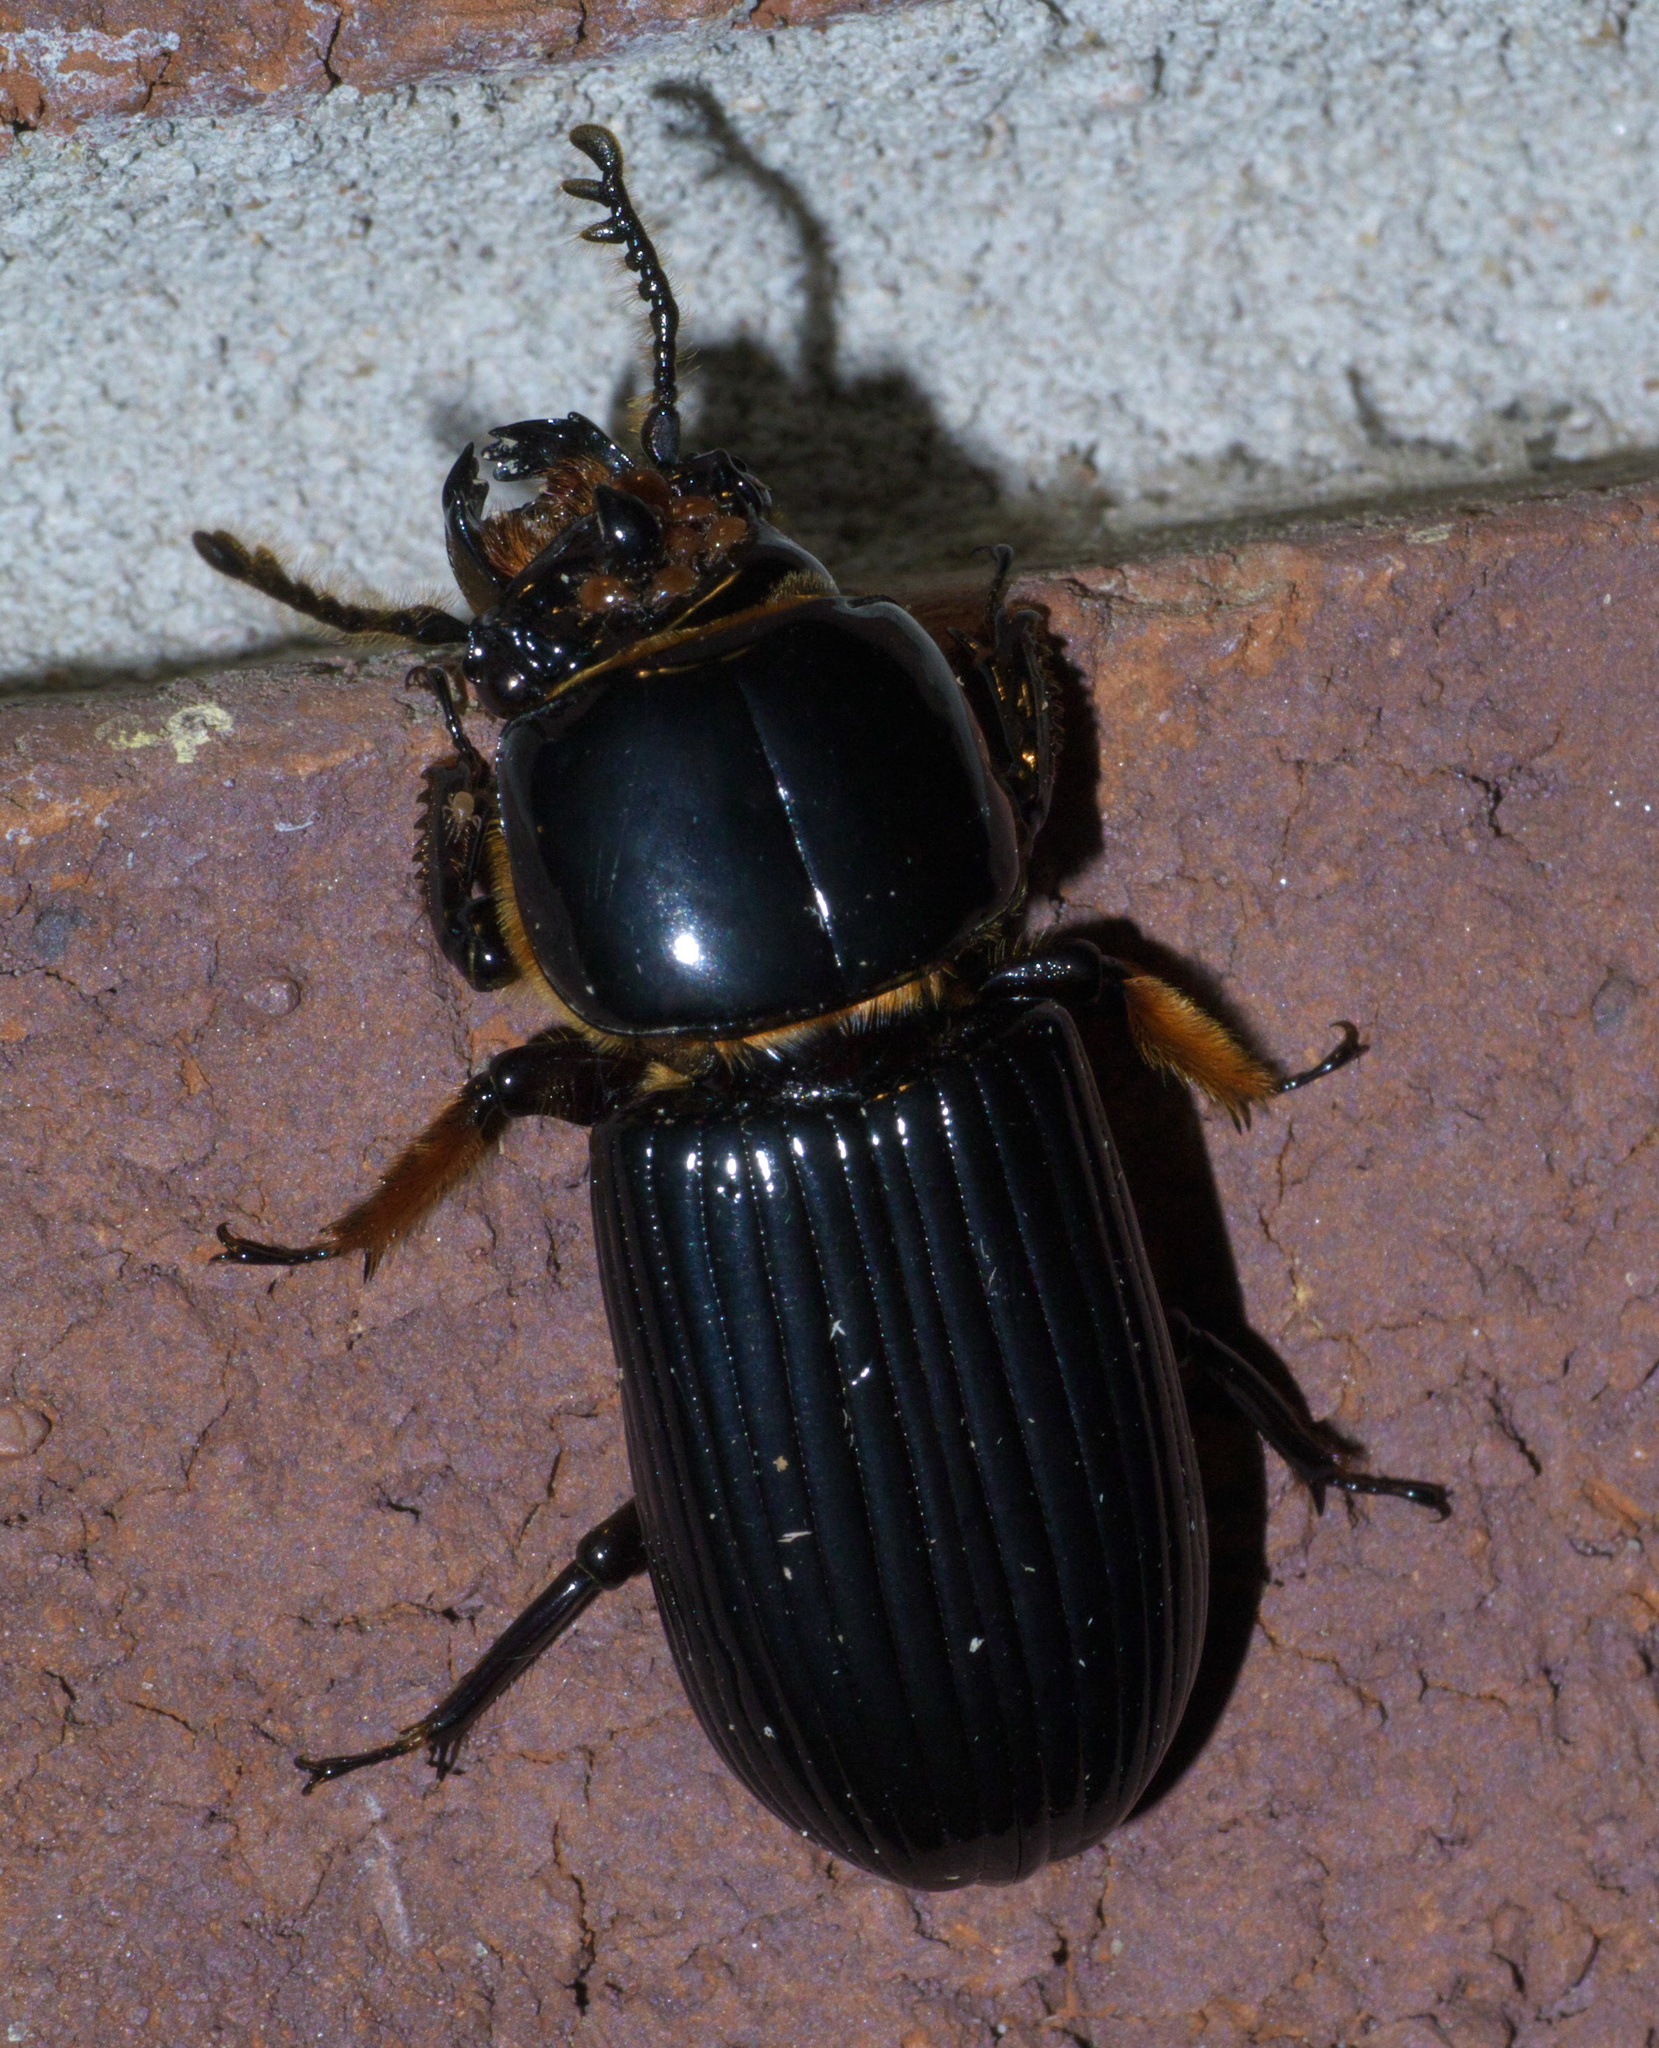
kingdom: Animalia
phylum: Arthropoda
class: Insecta
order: Coleoptera
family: Passalidae
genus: Odontotaenius
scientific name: Odontotaenius disjunctus
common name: Patent leather beetle
